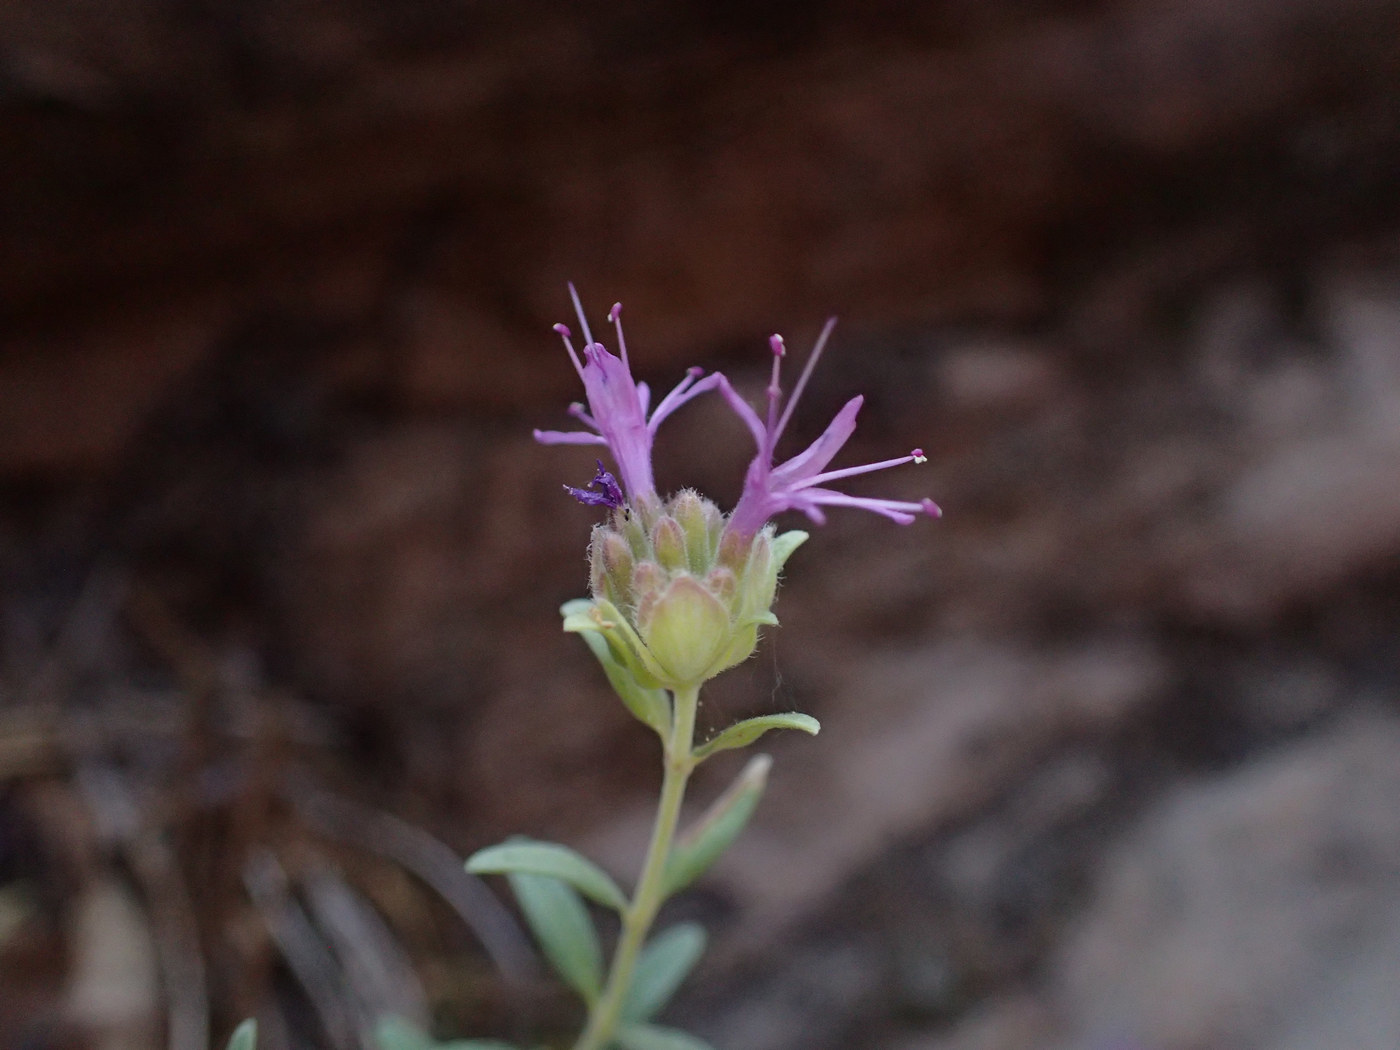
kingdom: Plantae
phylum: Tracheophyta
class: Magnoliopsida
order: Lamiales
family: Lamiaceae
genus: Monardella
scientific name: Monardella odoratissima
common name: Pacific monardella
